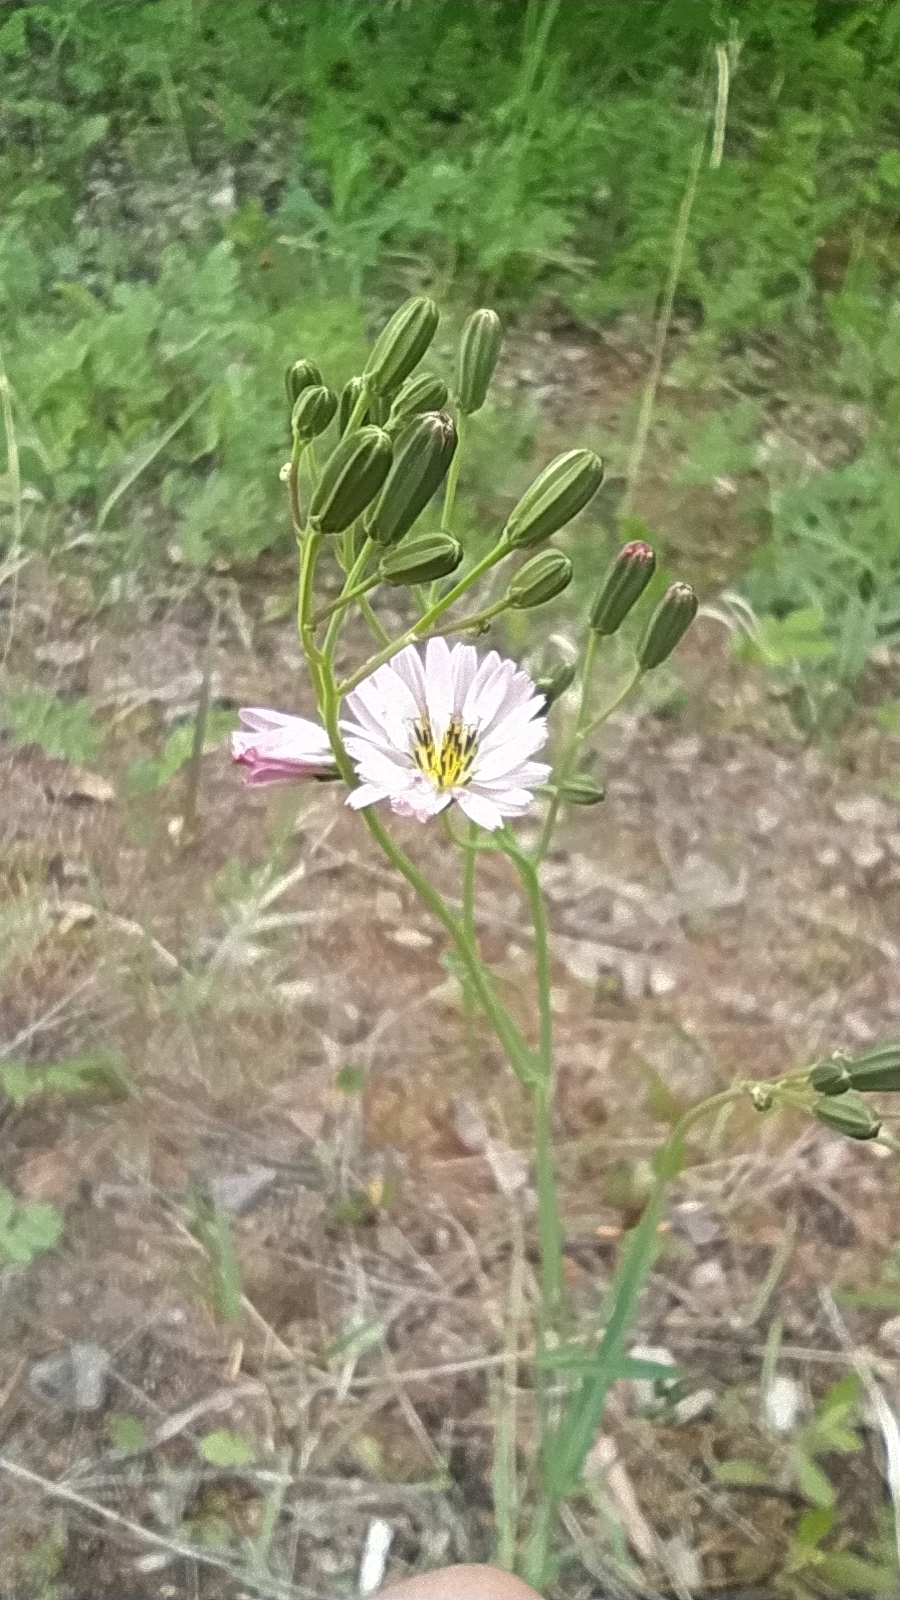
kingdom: Plantae
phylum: Tracheophyta
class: Magnoliopsida
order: Asterales
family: Asteraceae
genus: Ixeris
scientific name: Ixeris chinensis
